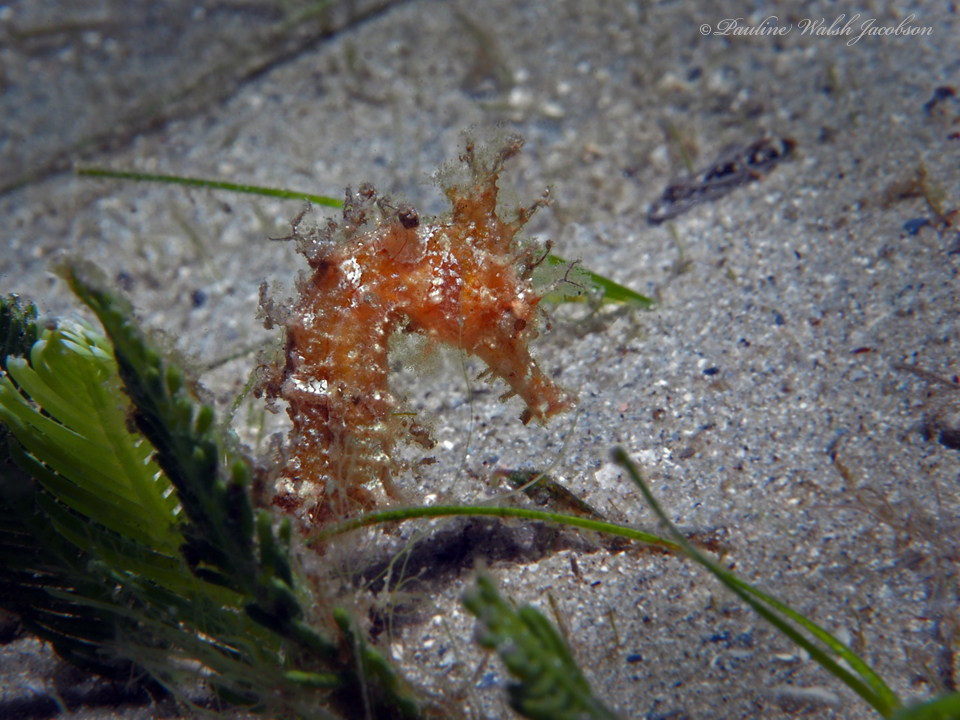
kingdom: Animalia
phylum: Chordata
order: Syngnathiformes
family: Syngnathidae
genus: Hippocampus
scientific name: Hippocampus erectus
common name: Lined seahorse
